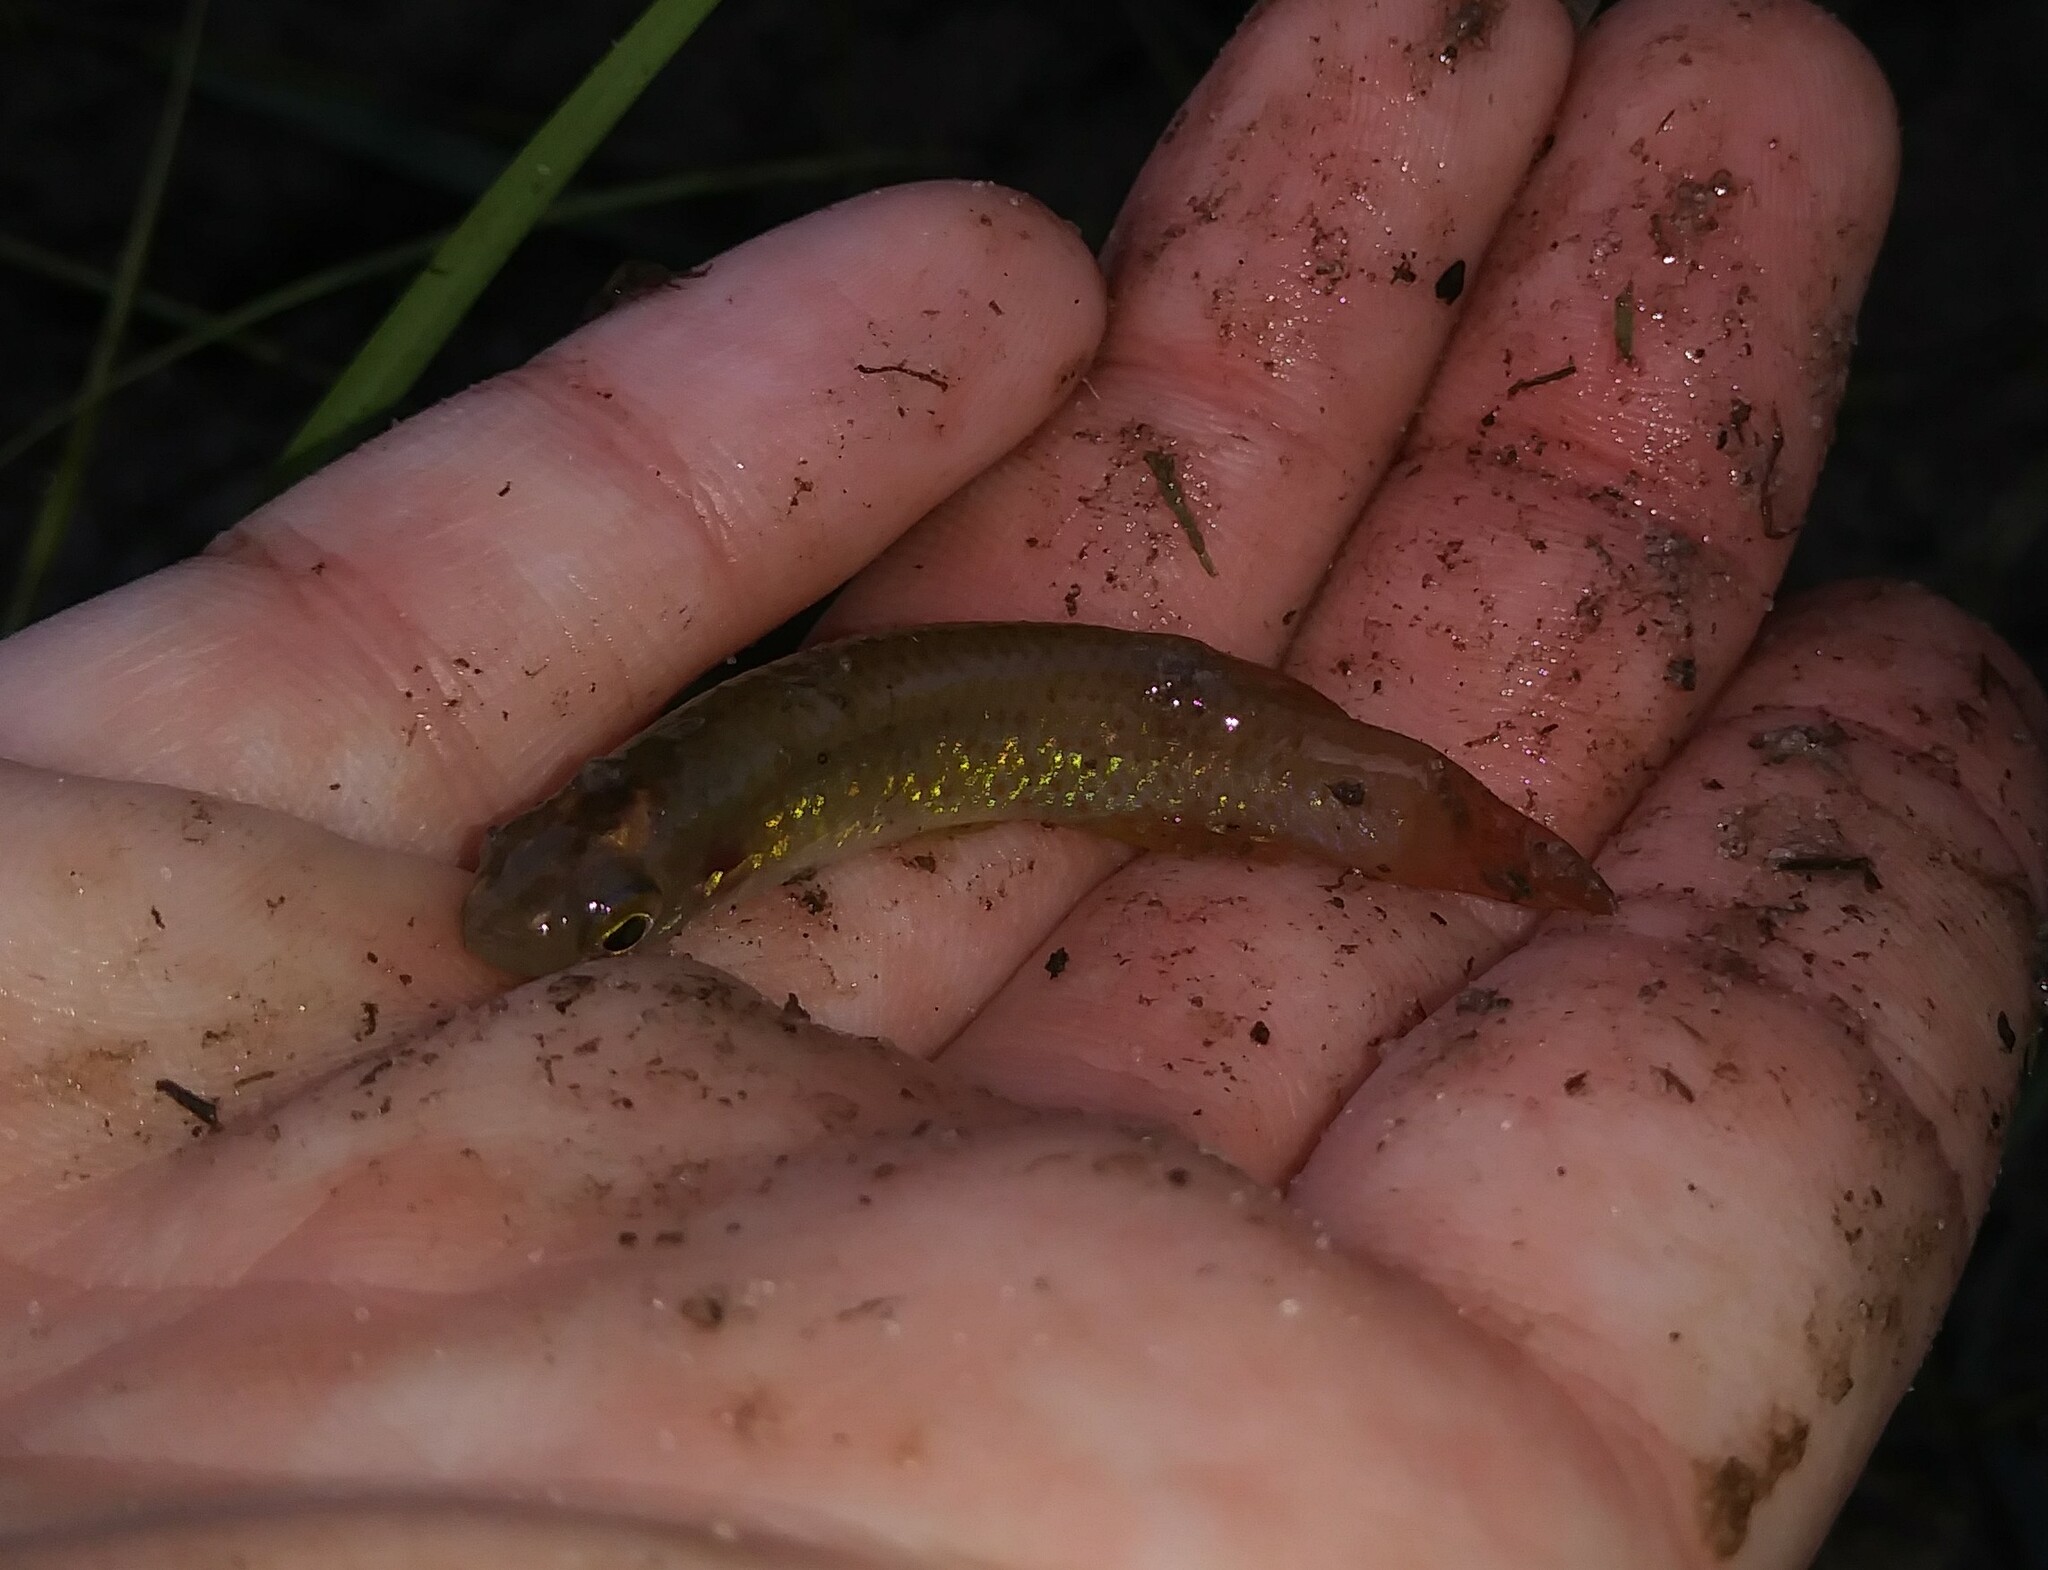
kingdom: Animalia
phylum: Chordata
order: Cyprinodontiformes
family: Fundulidae
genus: Fundulus
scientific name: Fundulus chrysotus
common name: Golden topminnow
